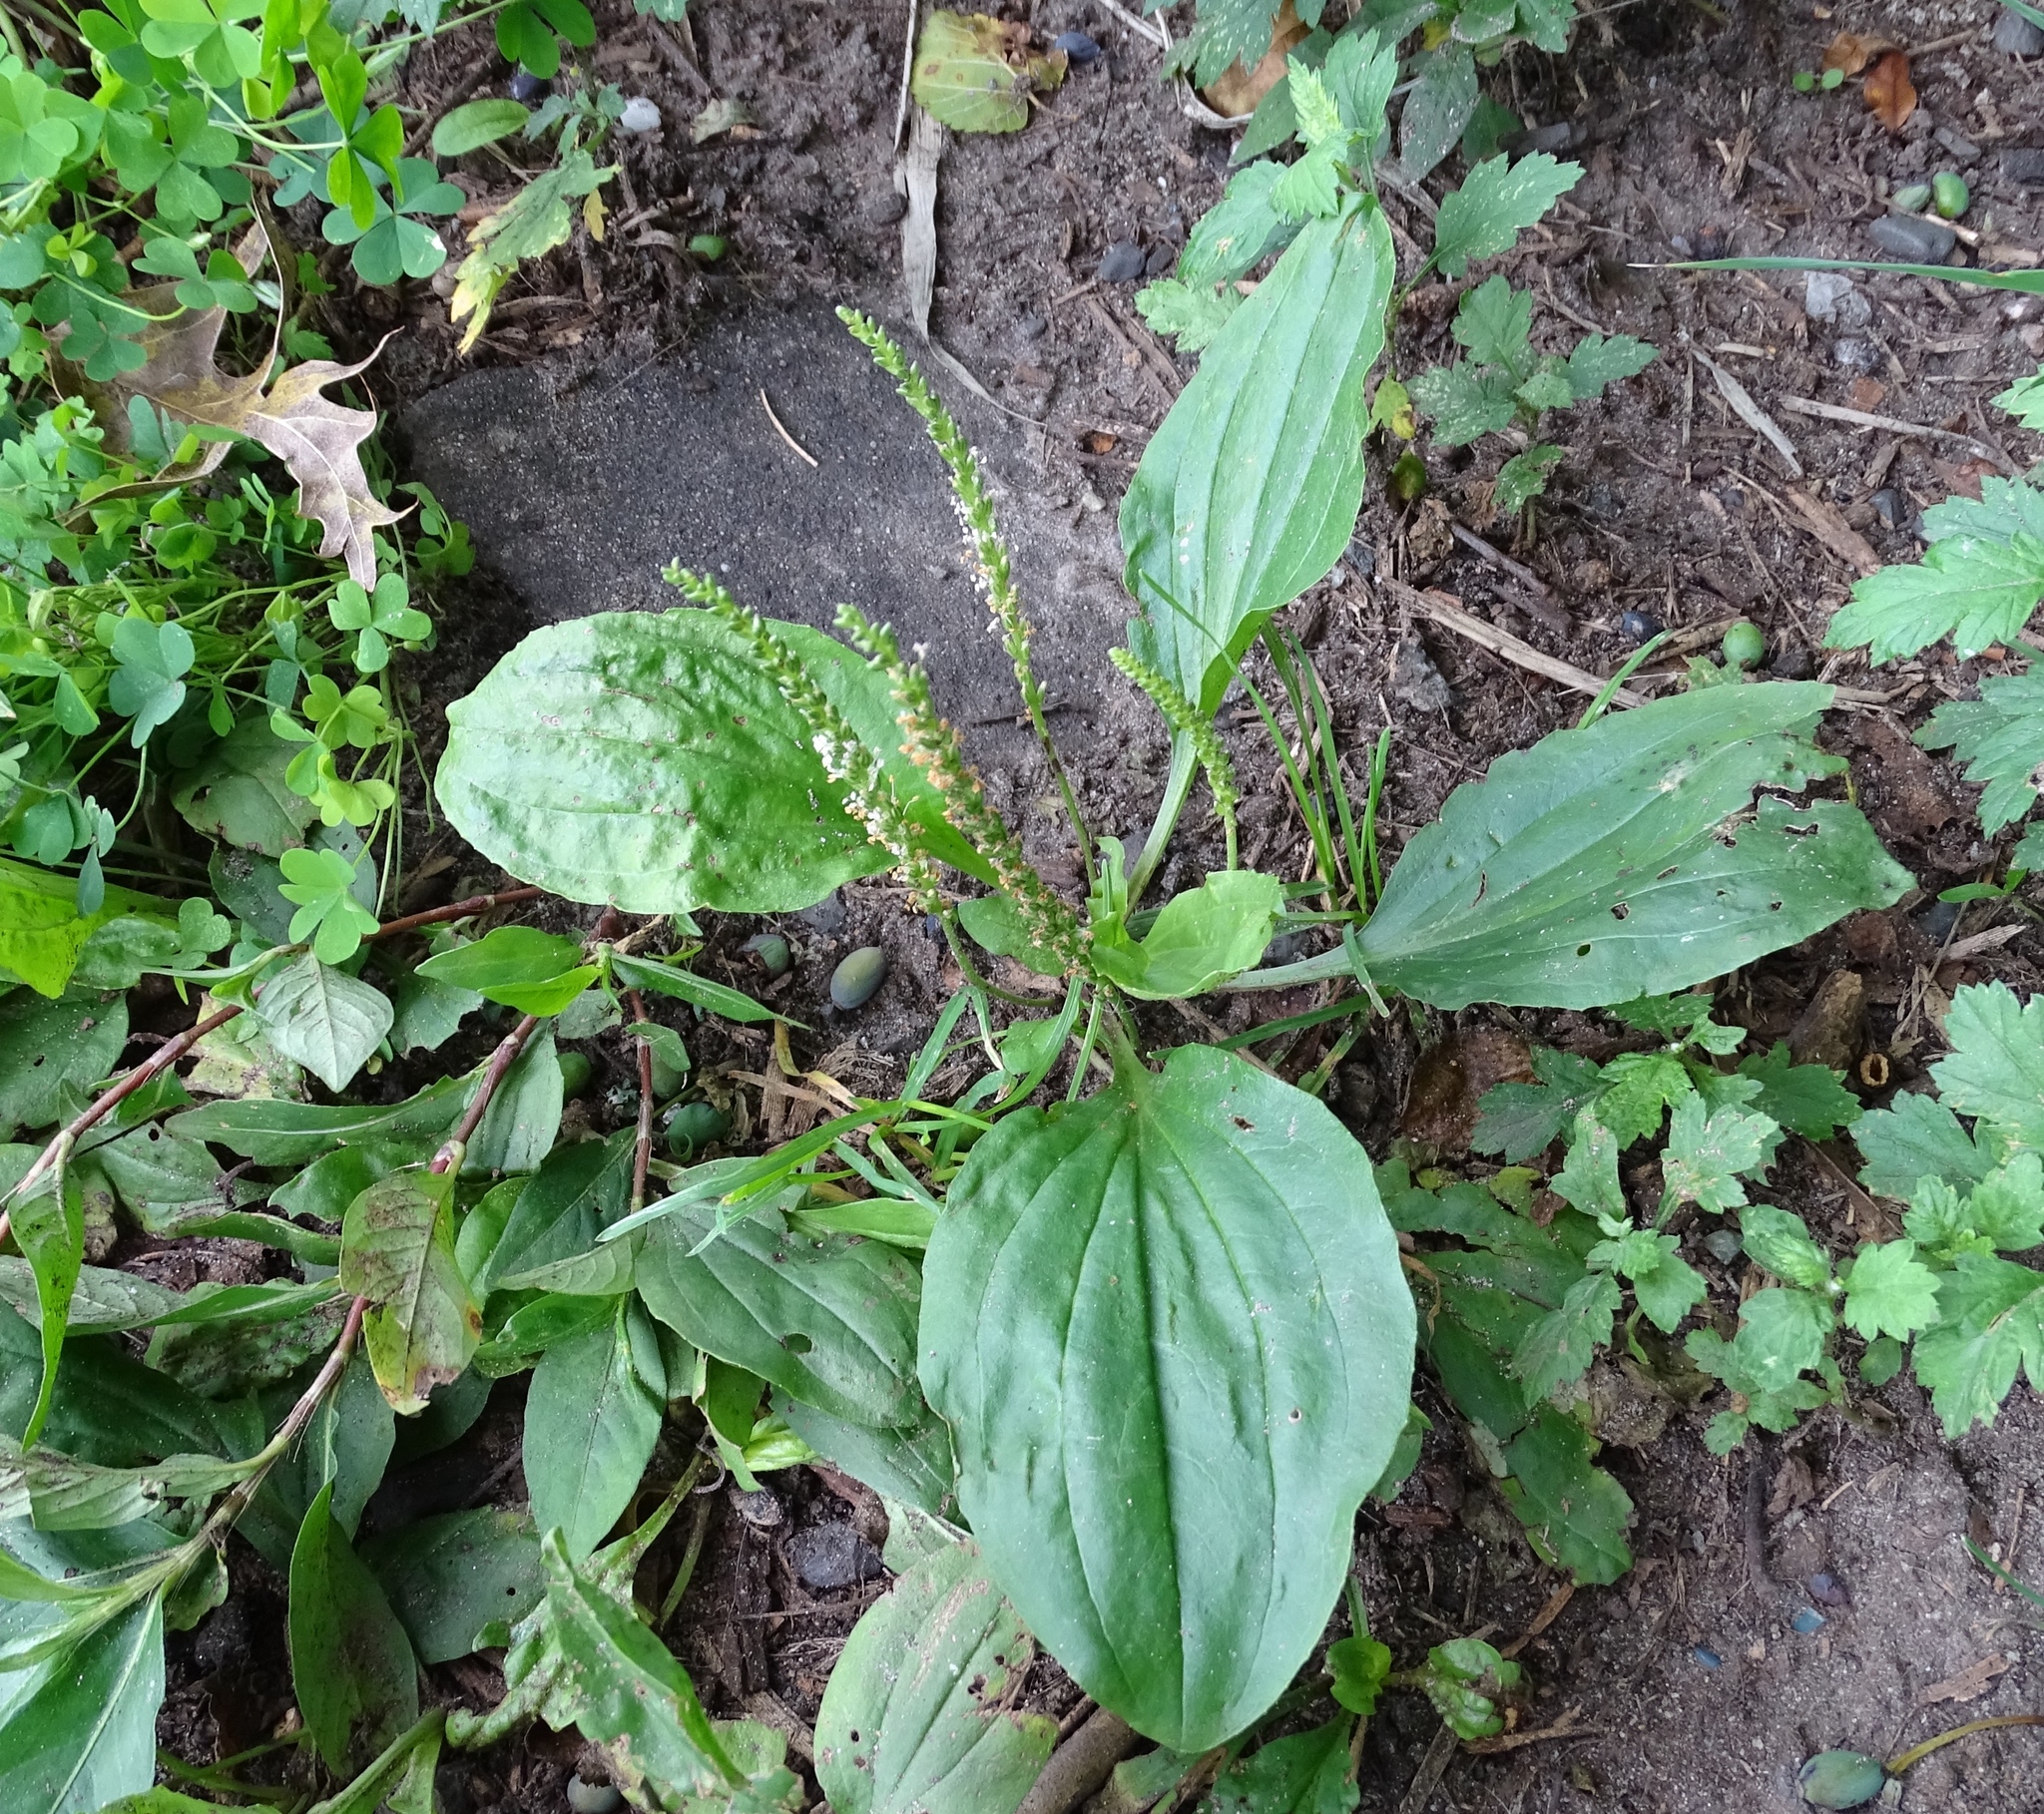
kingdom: Plantae
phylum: Tracheophyta
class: Magnoliopsida
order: Lamiales
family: Plantaginaceae
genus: Plantago
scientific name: Plantago major
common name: Common plantain
